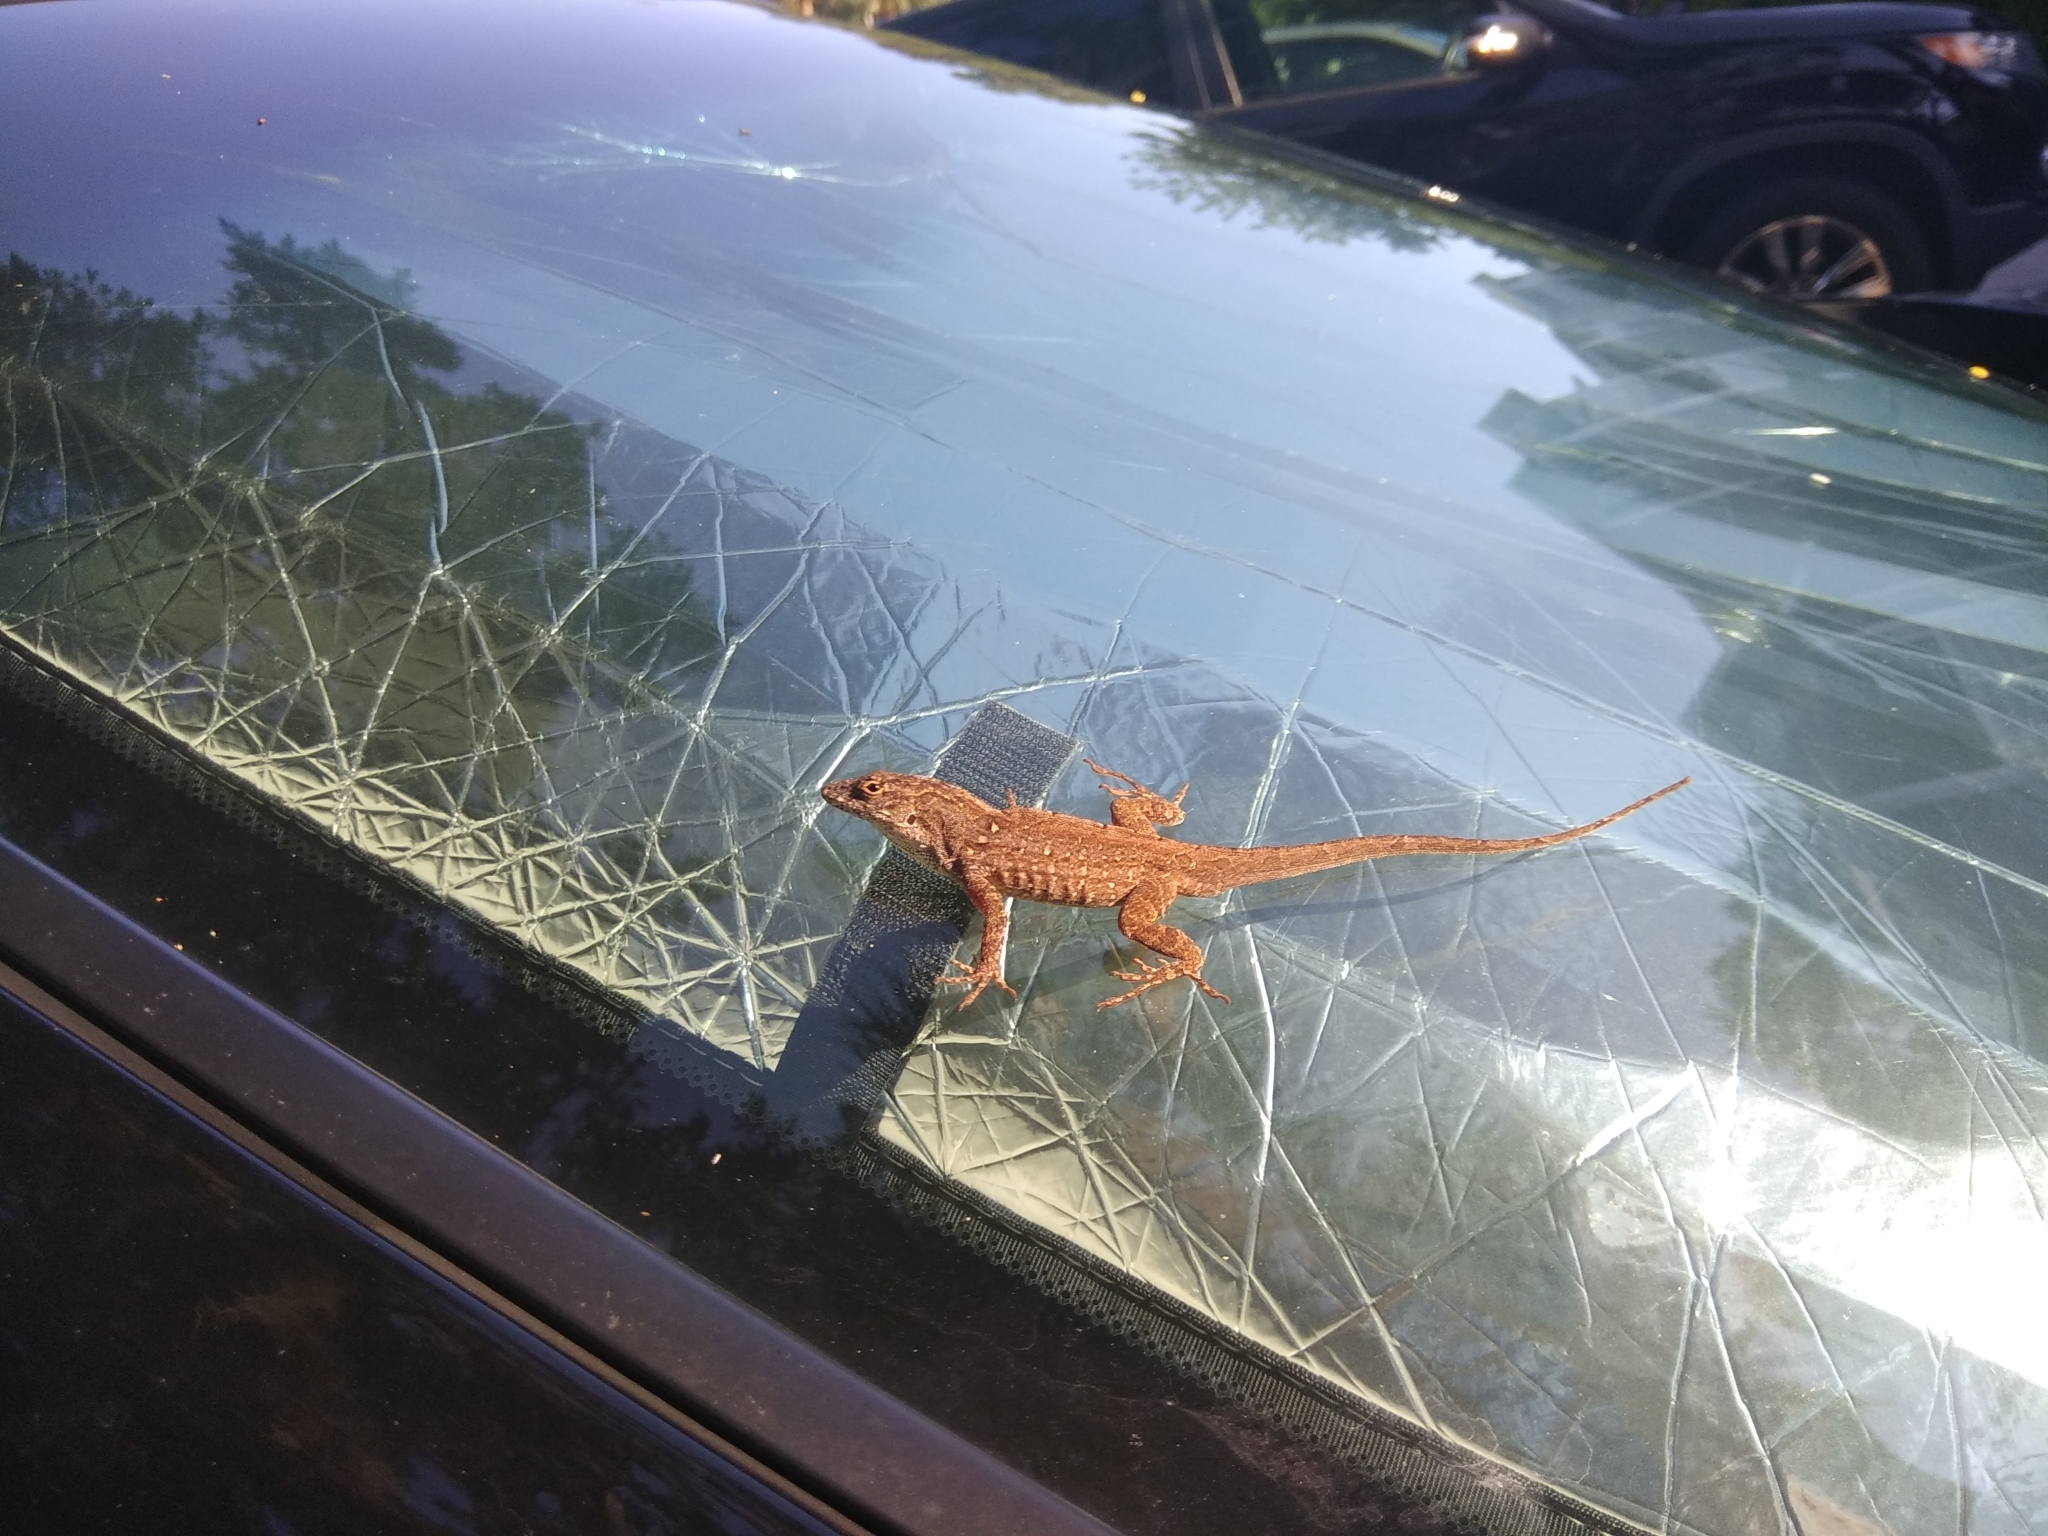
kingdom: Animalia
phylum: Chordata
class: Squamata
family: Dactyloidae
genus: Anolis
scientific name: Anolis sagrei
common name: Brown anole
